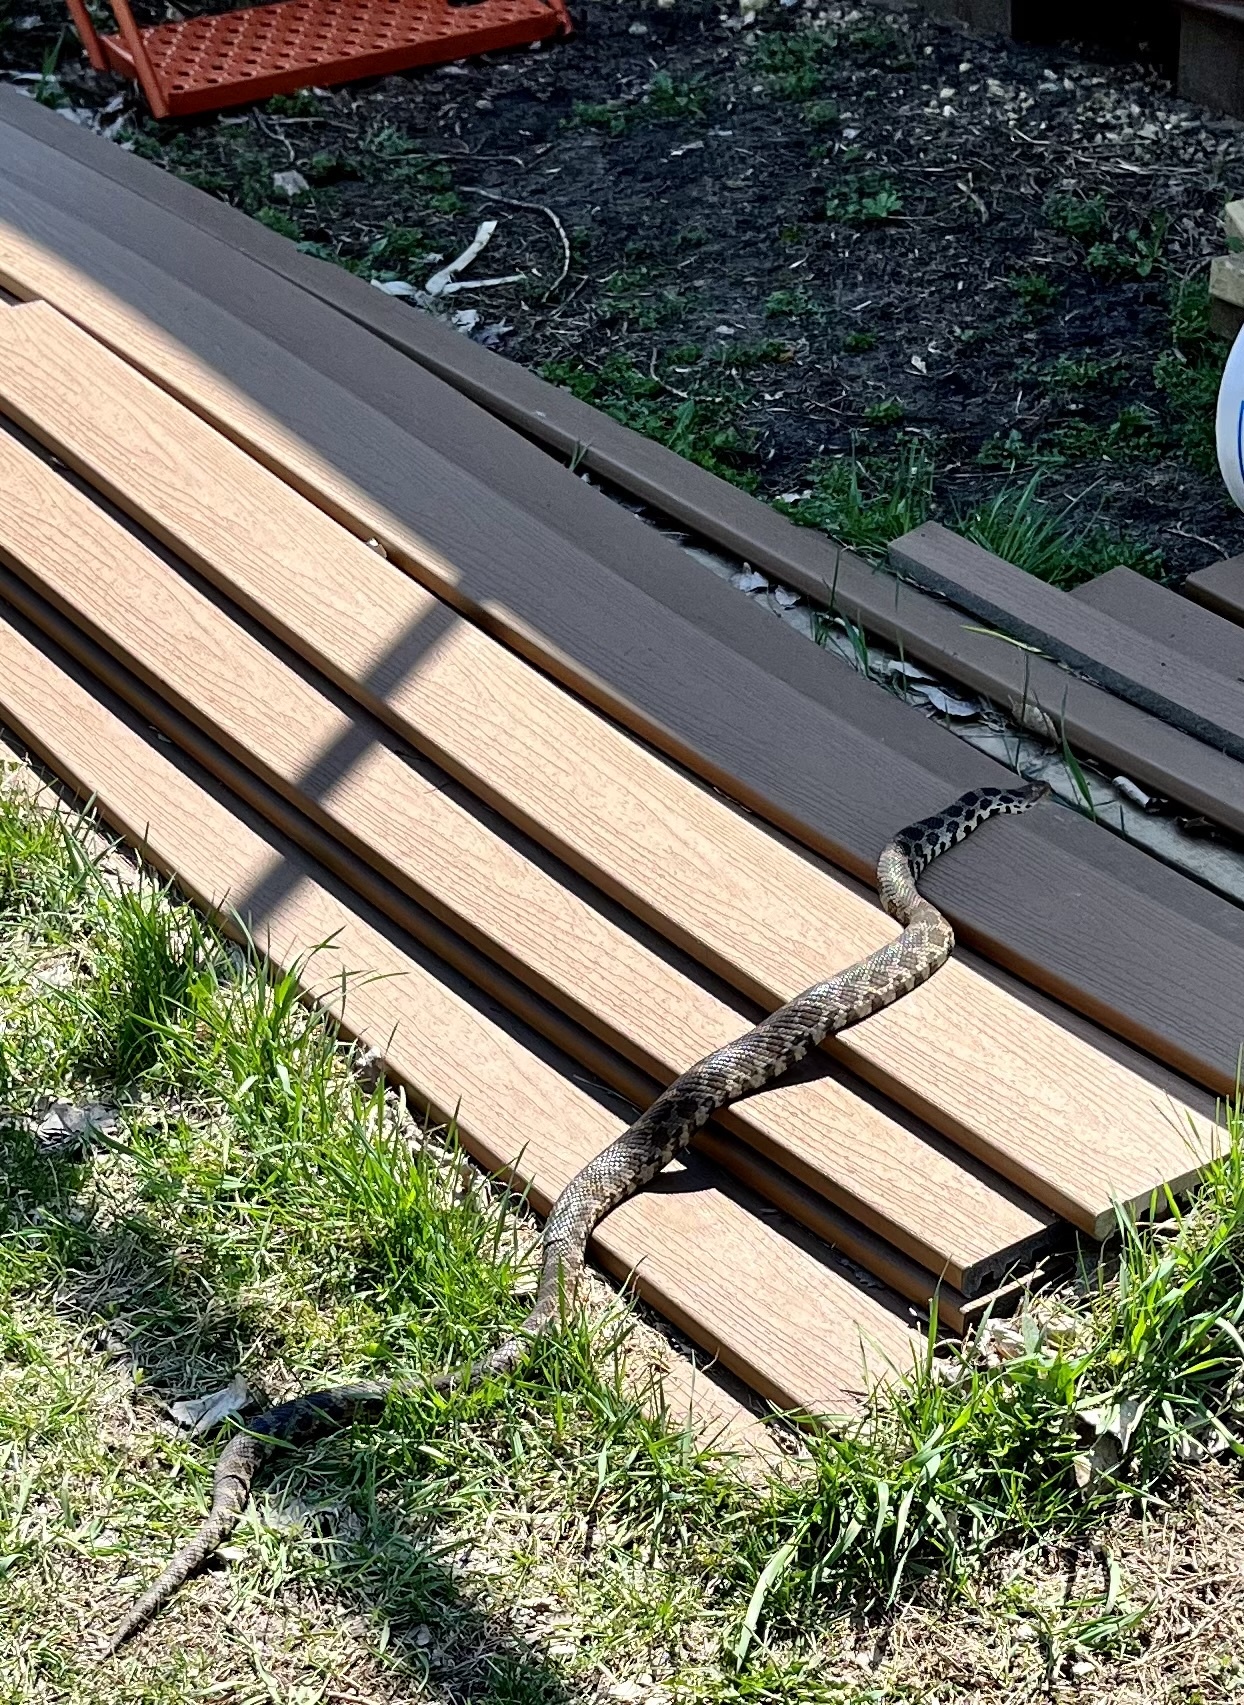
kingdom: Animalia
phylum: Chordata
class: Squamata
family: Colubridae
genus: Pantherophis
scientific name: Pantherophis vulpinus
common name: Eastern fox snake
